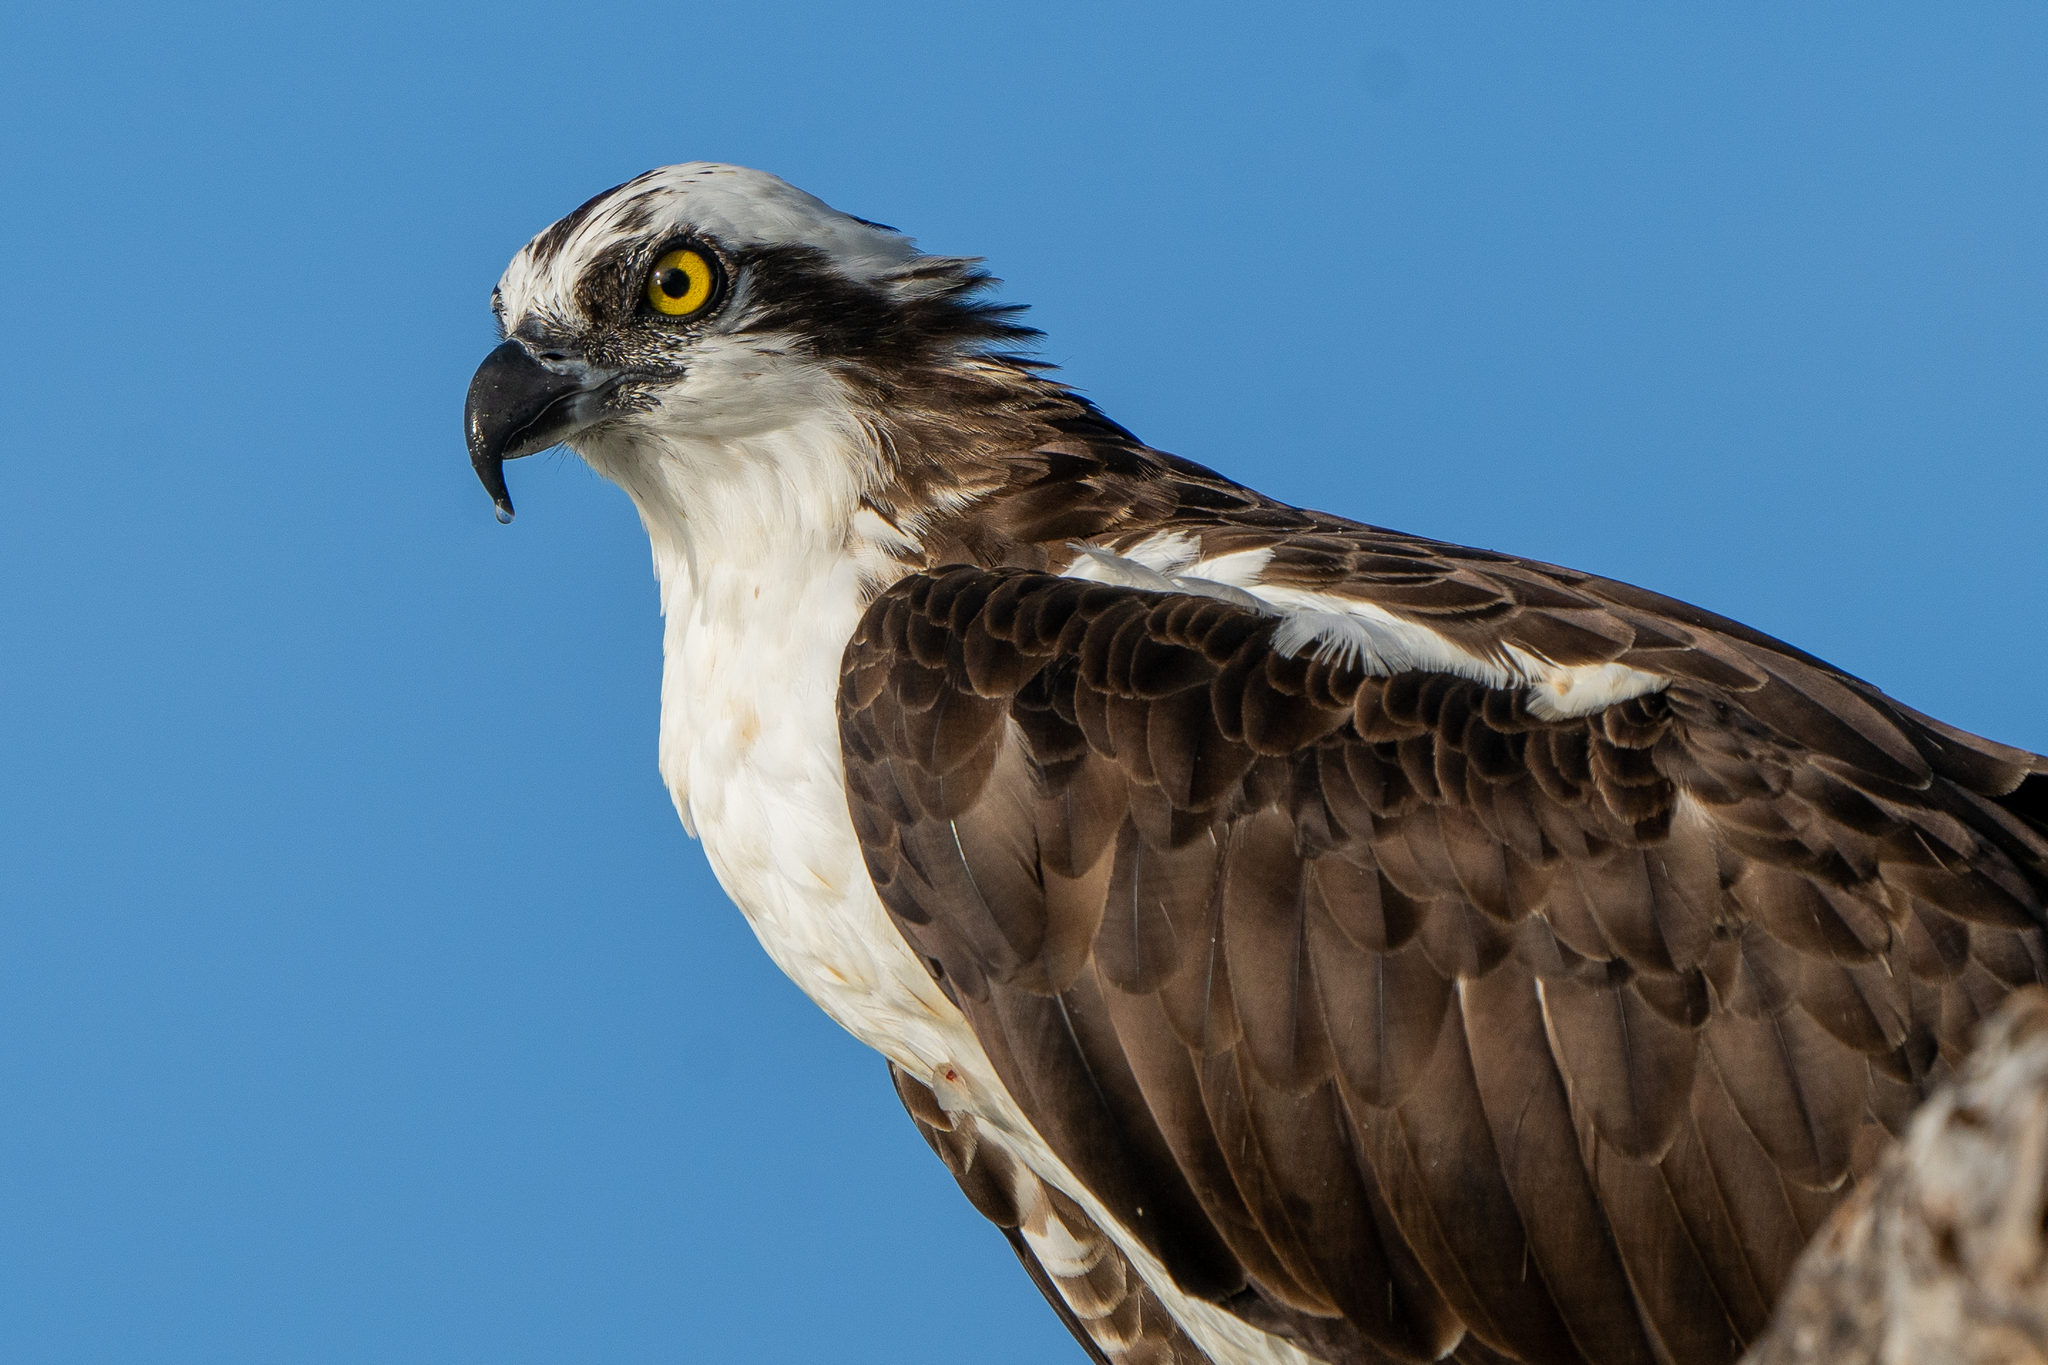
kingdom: Animalia
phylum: Chordata
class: Aves
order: Accipitriformes
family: Pandionidae
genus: Pandion
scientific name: Pandion haliaetus
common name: Osprey
